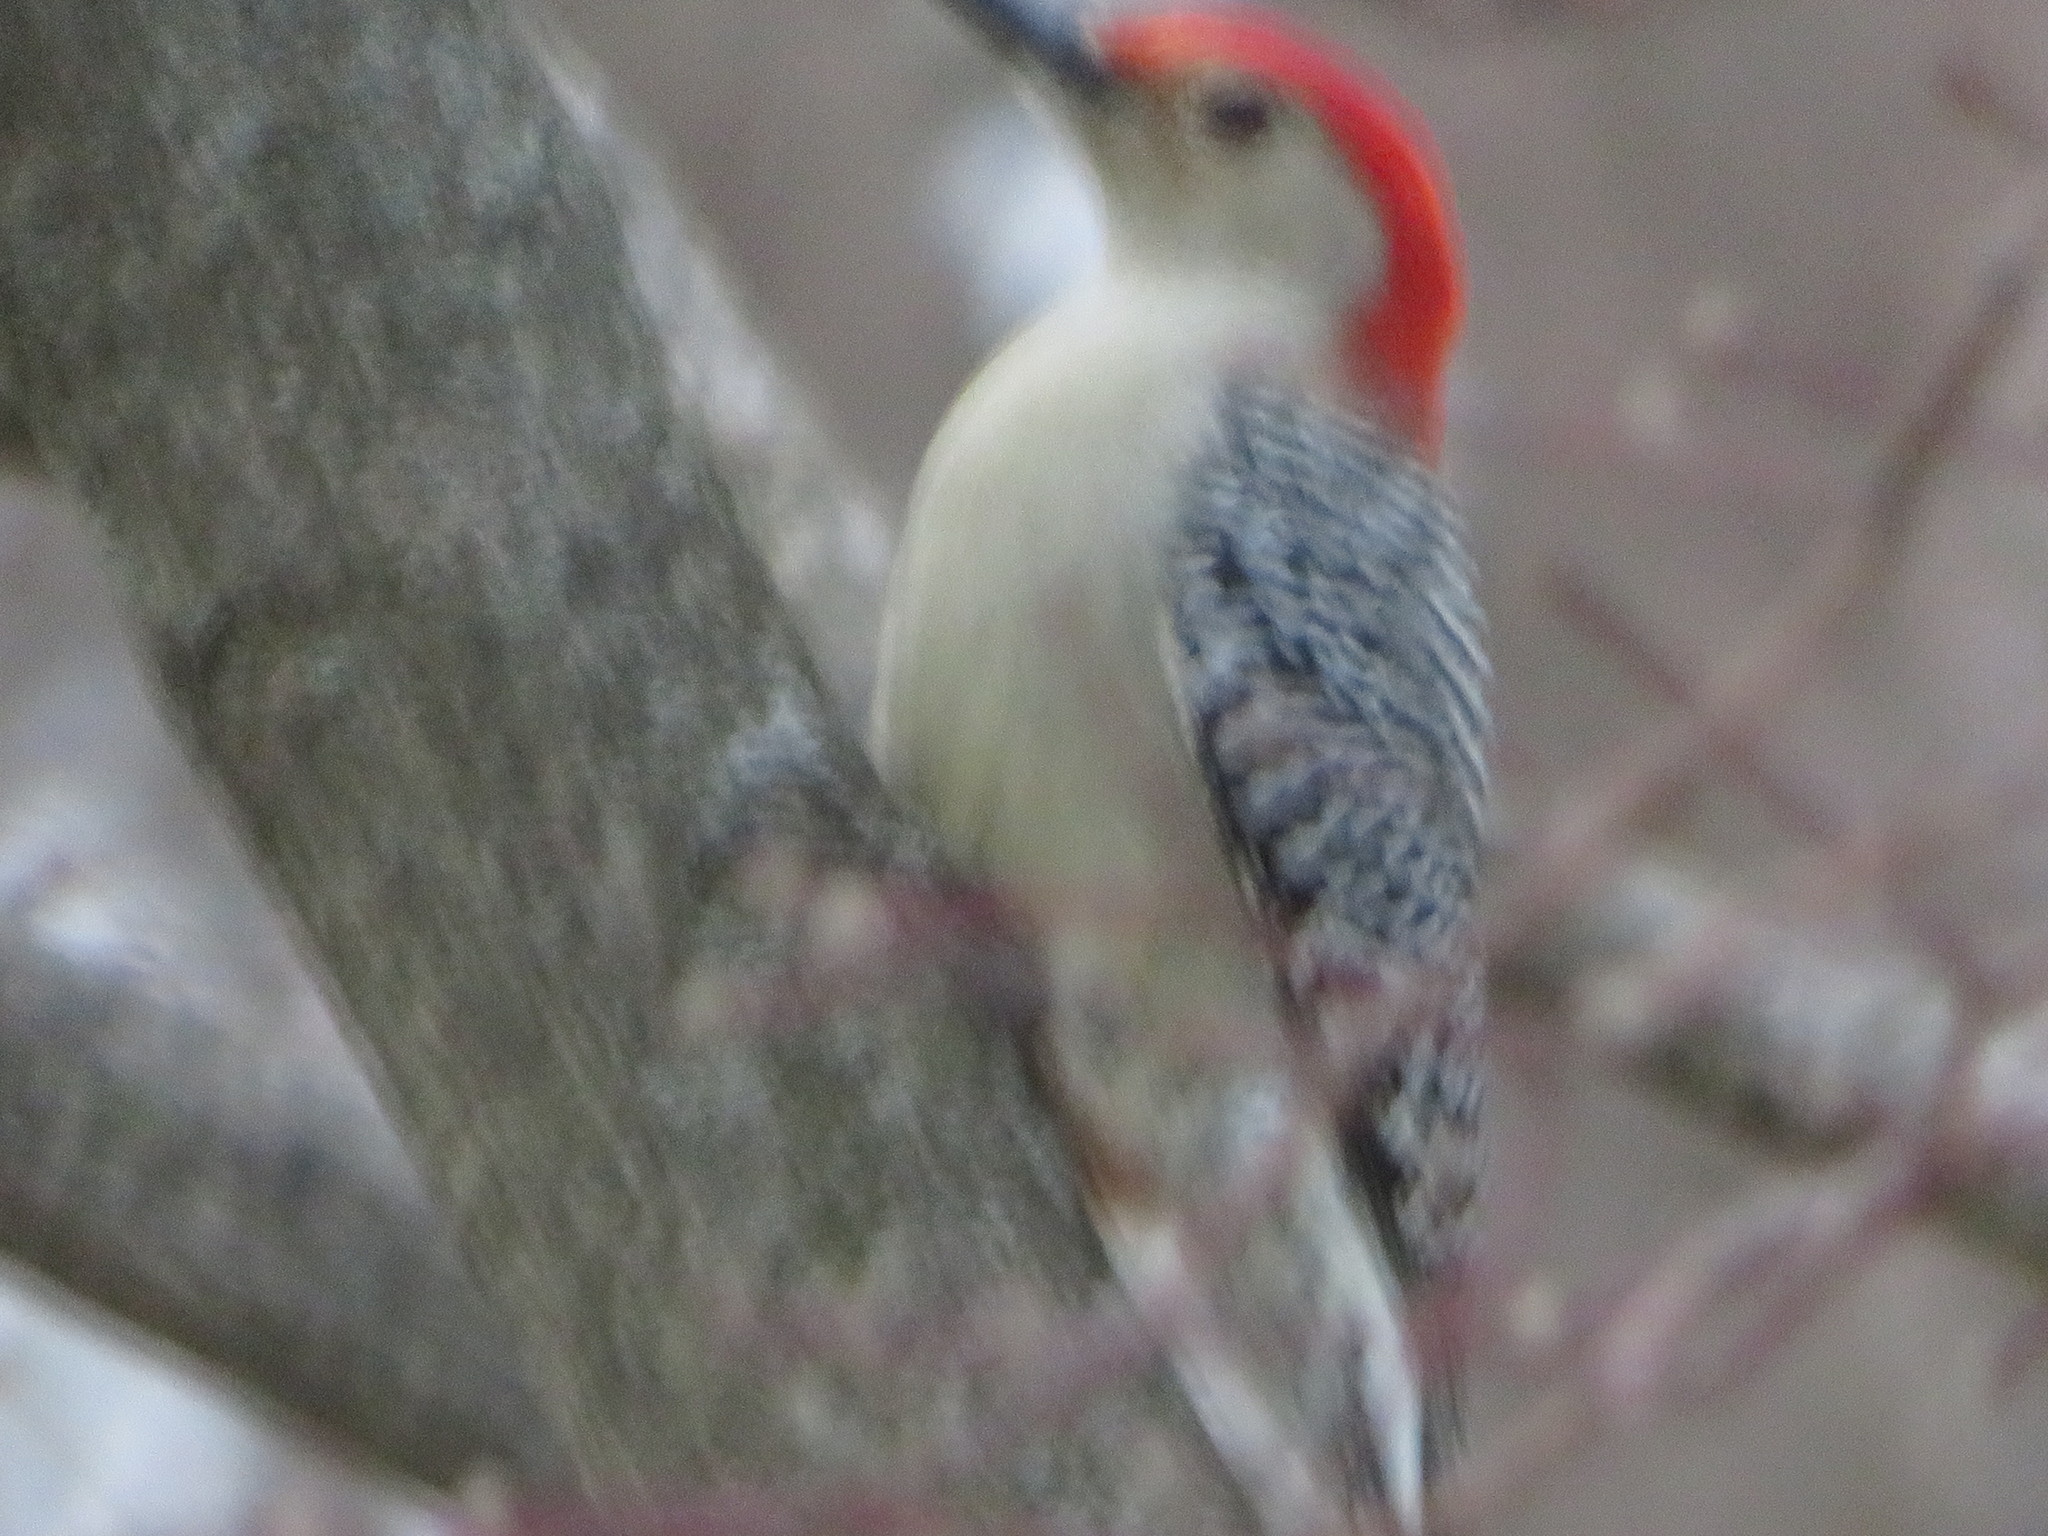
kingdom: Animalia
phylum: Chordata
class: Aves
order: Piciformes
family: Picidae
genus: Melanerpes
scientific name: Melanerpes carolinus
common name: Red-bellied woodpecker
